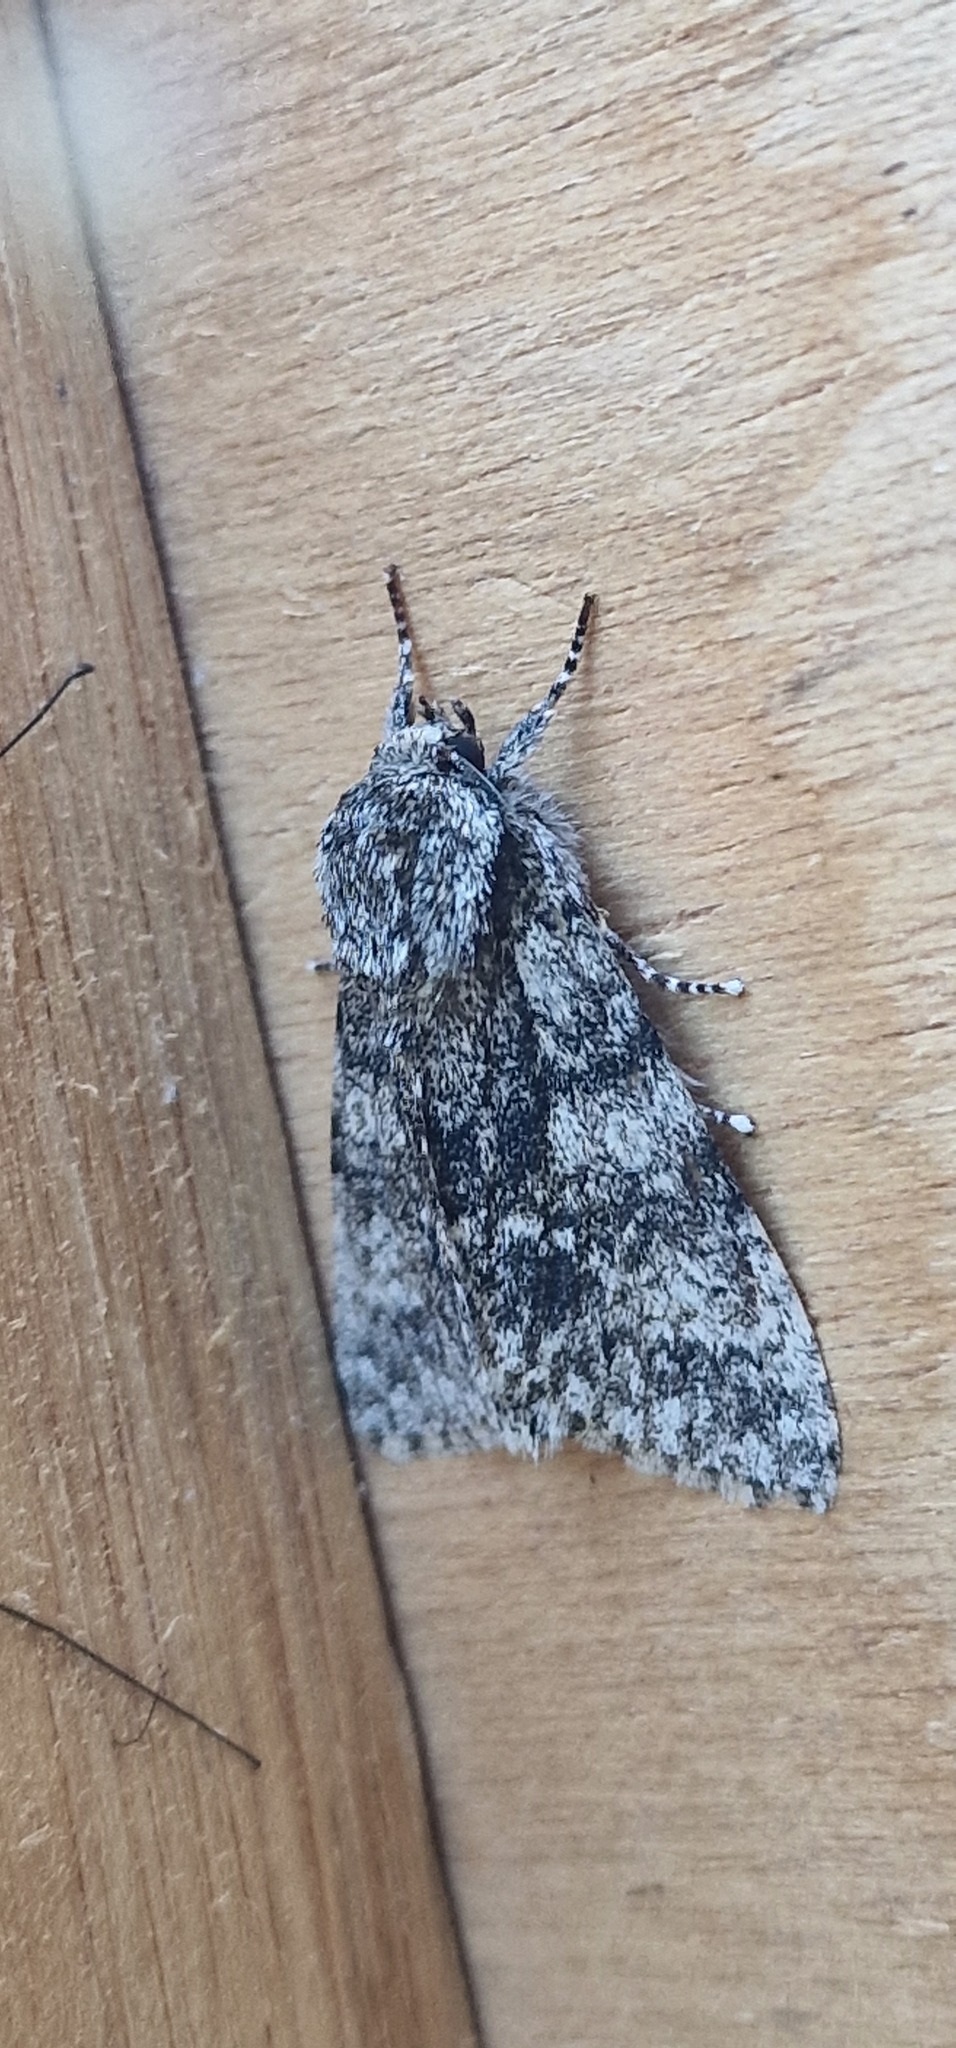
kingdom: Animalia
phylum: Arthropoda
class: Insecta
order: Lepidoptera
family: Noctuidae
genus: Acronicta
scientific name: Acronicta megacephala
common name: Poplar grey
